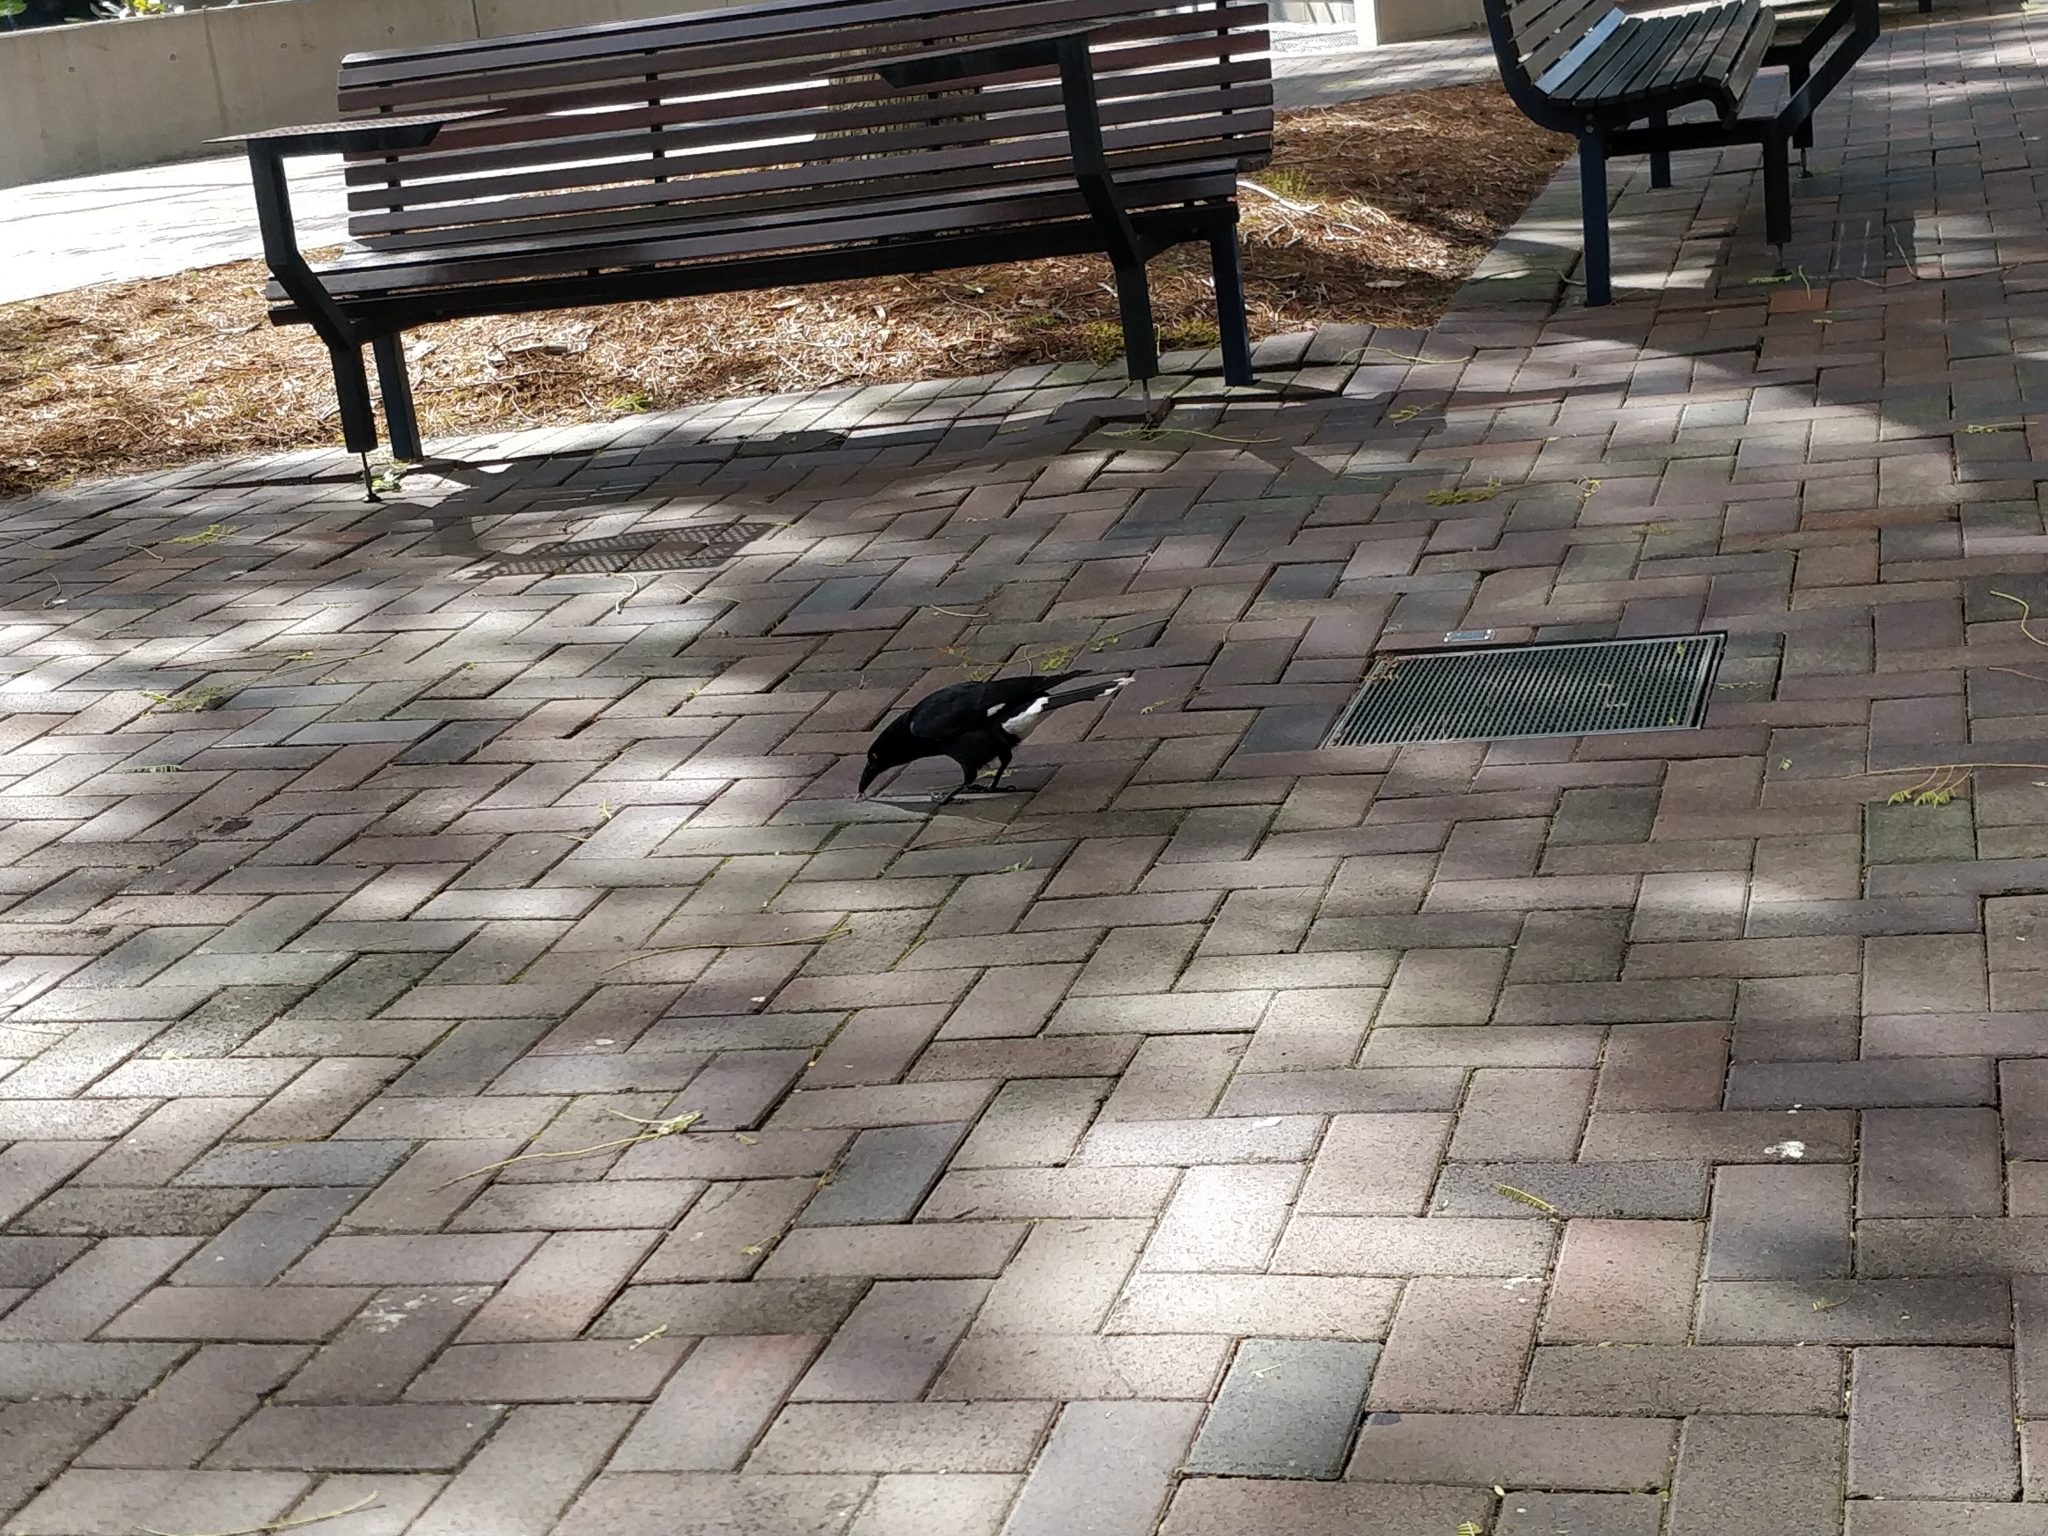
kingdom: Animalia
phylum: Chordata
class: Aves
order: Passeriformes
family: Cracticidae
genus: Strepera
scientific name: Strepera graculina
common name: Pied currawong
